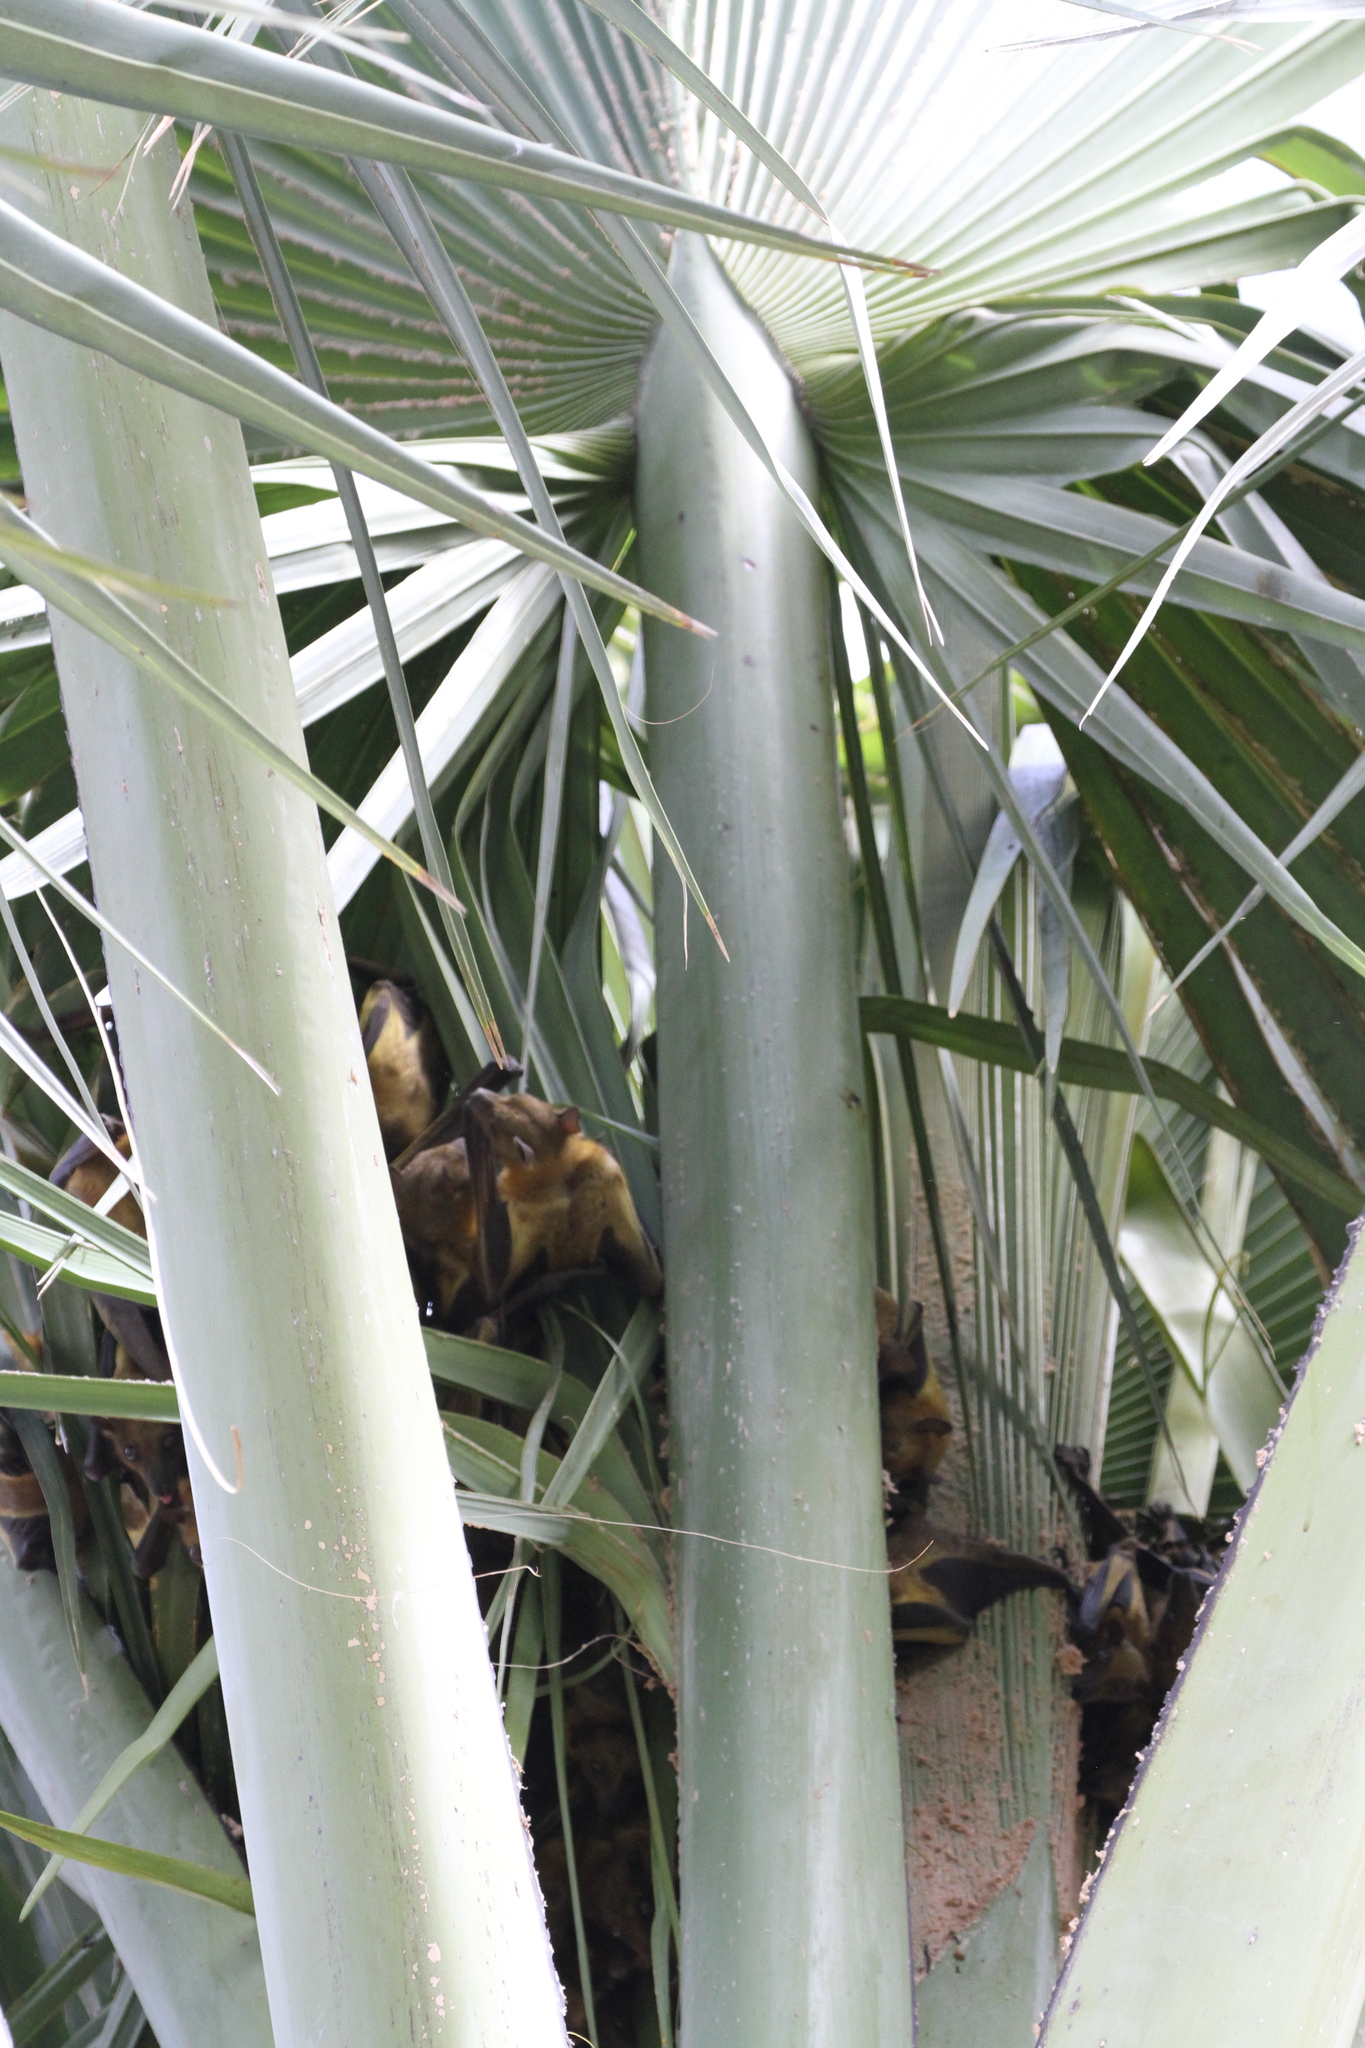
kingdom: Animalia
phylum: Chordata
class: Mammalia
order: Chiroptera
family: Pteropodidae
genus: Eidolon
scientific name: Eidolon helvum
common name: Straw-colored fruit bat
